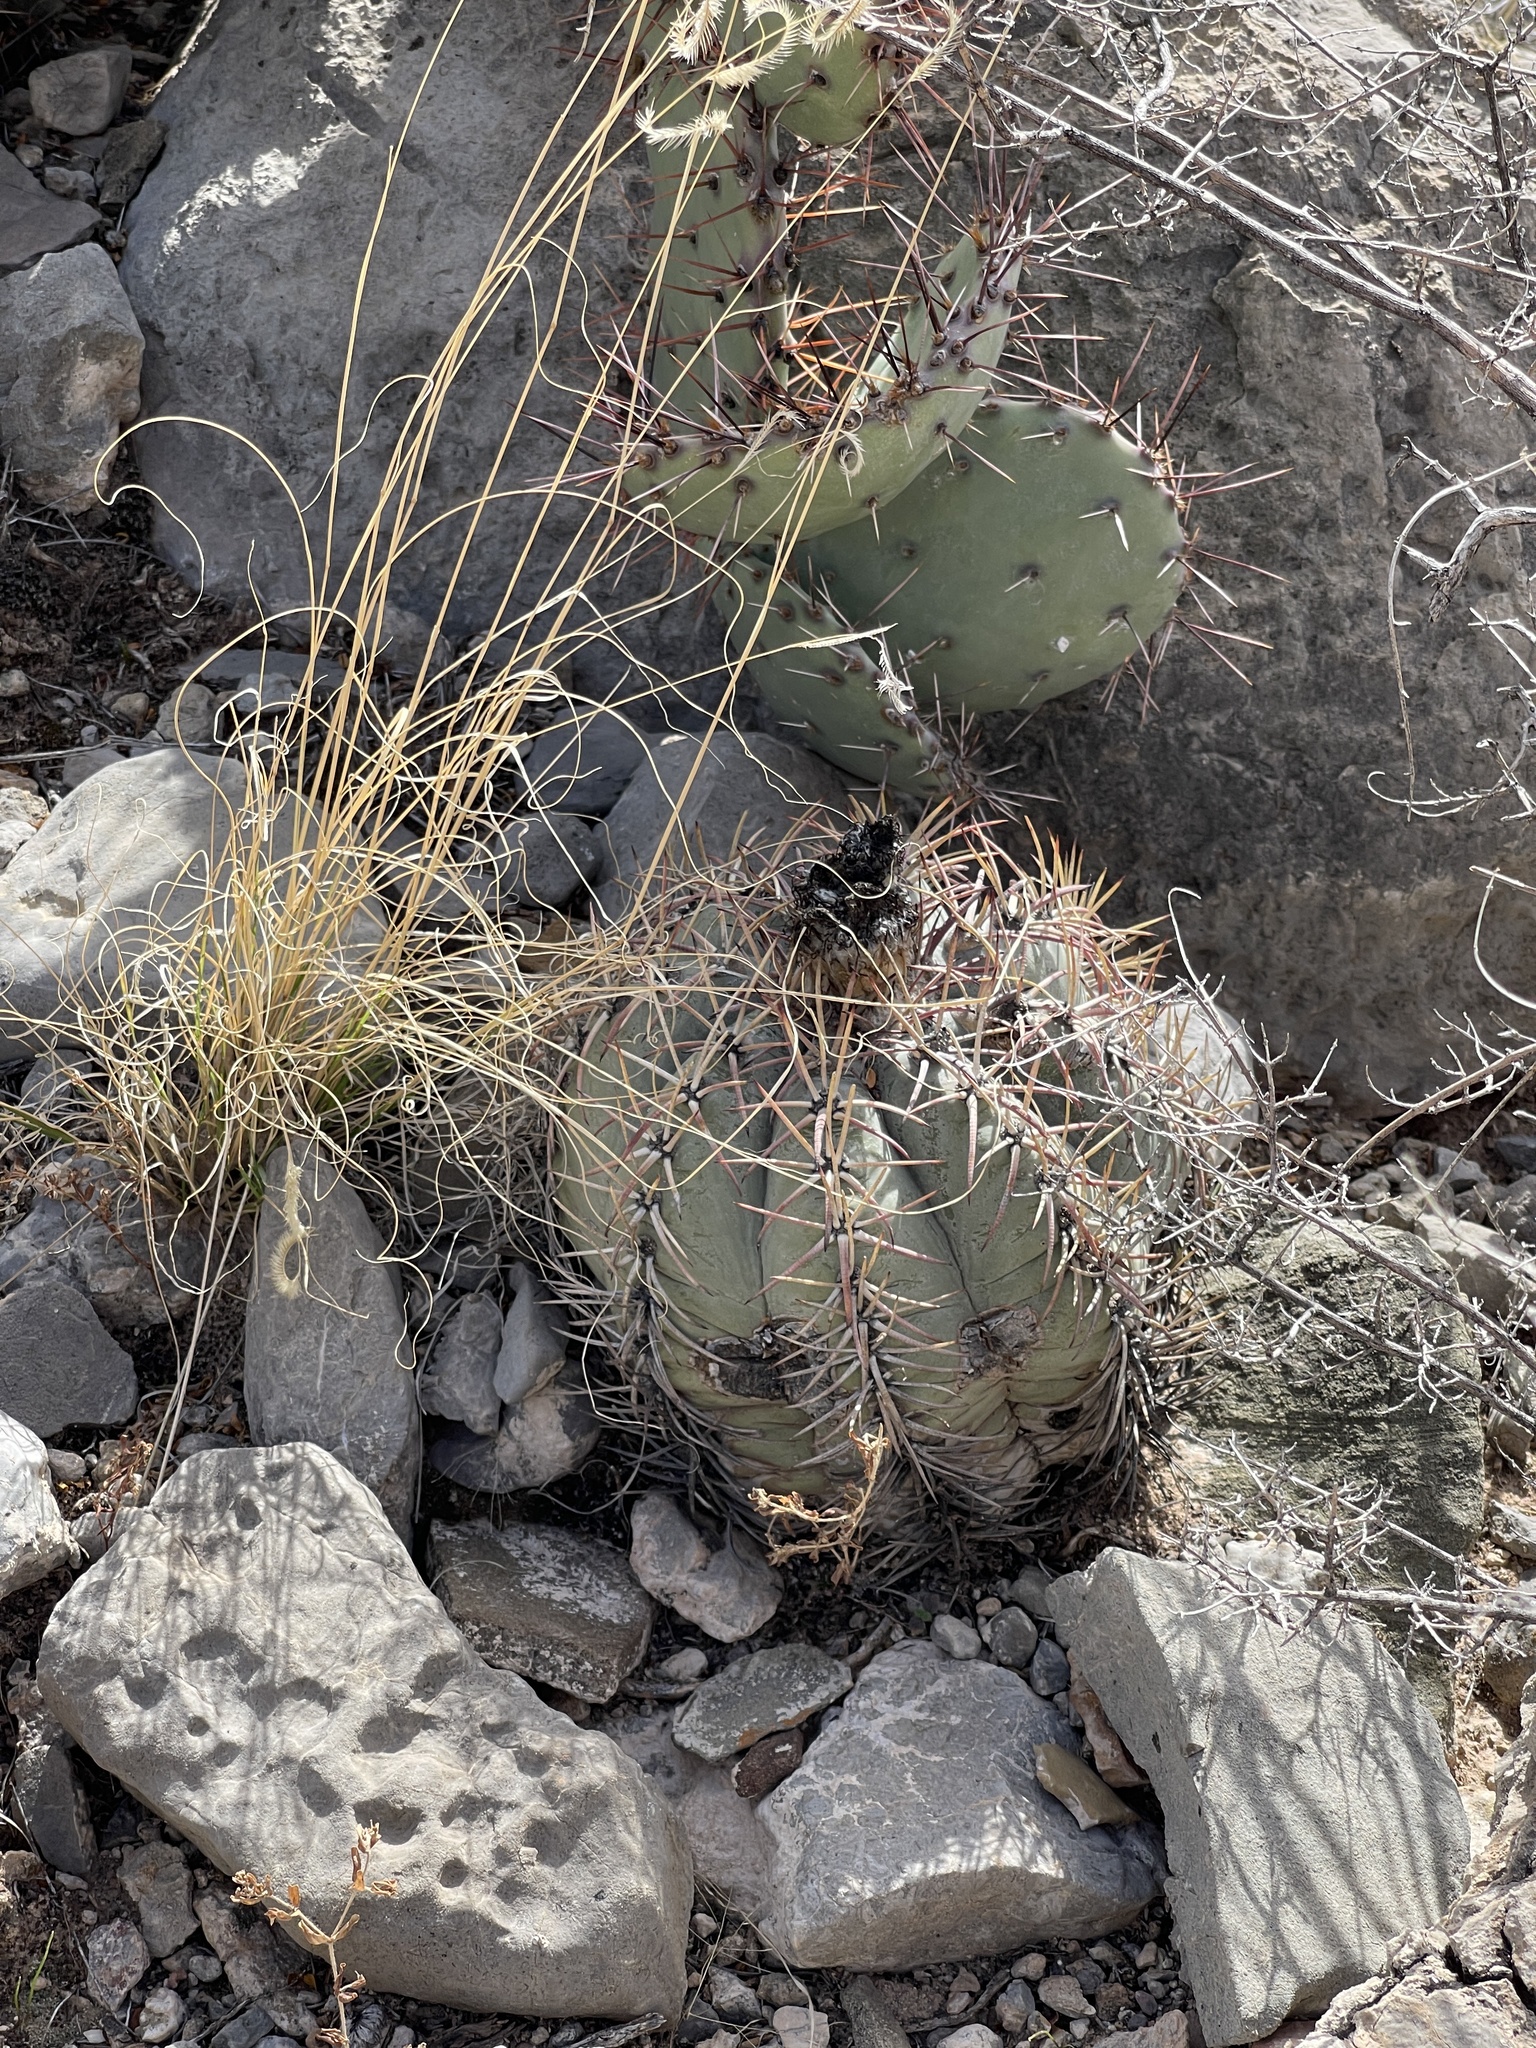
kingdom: Plantae
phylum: Tracheophyta
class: Magnoliopsida
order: Caryophyllales
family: Cactaceae
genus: Echinocactus
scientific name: Echinocactus horizonthalonius
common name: Devilshead
